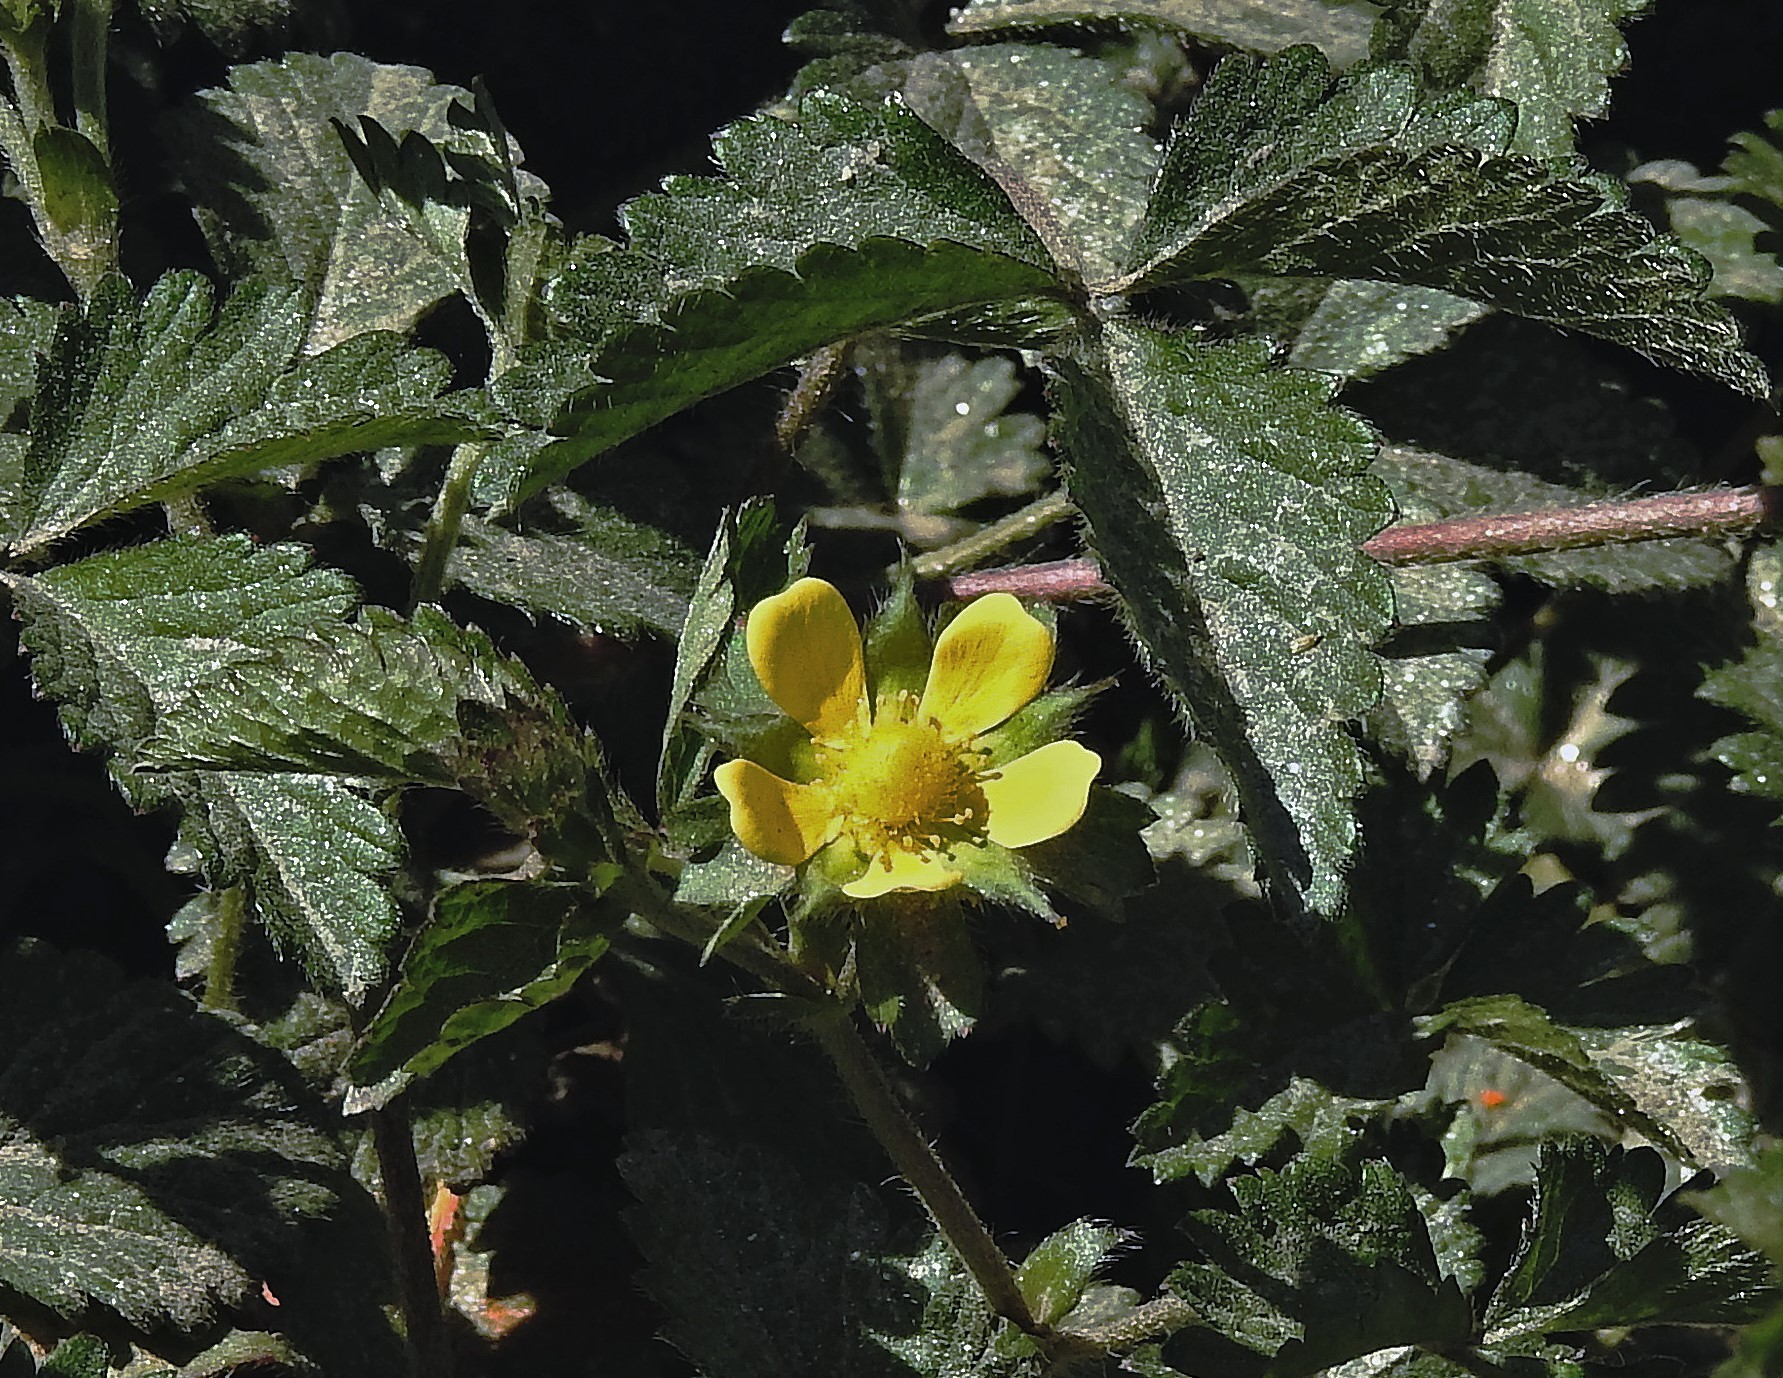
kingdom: Plantae
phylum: Tracheophyta
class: Magnoliopsida
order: Rosales
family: Rosaceae
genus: Potentilla
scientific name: Potentilla indica
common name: Yellow-flowered strawberry
